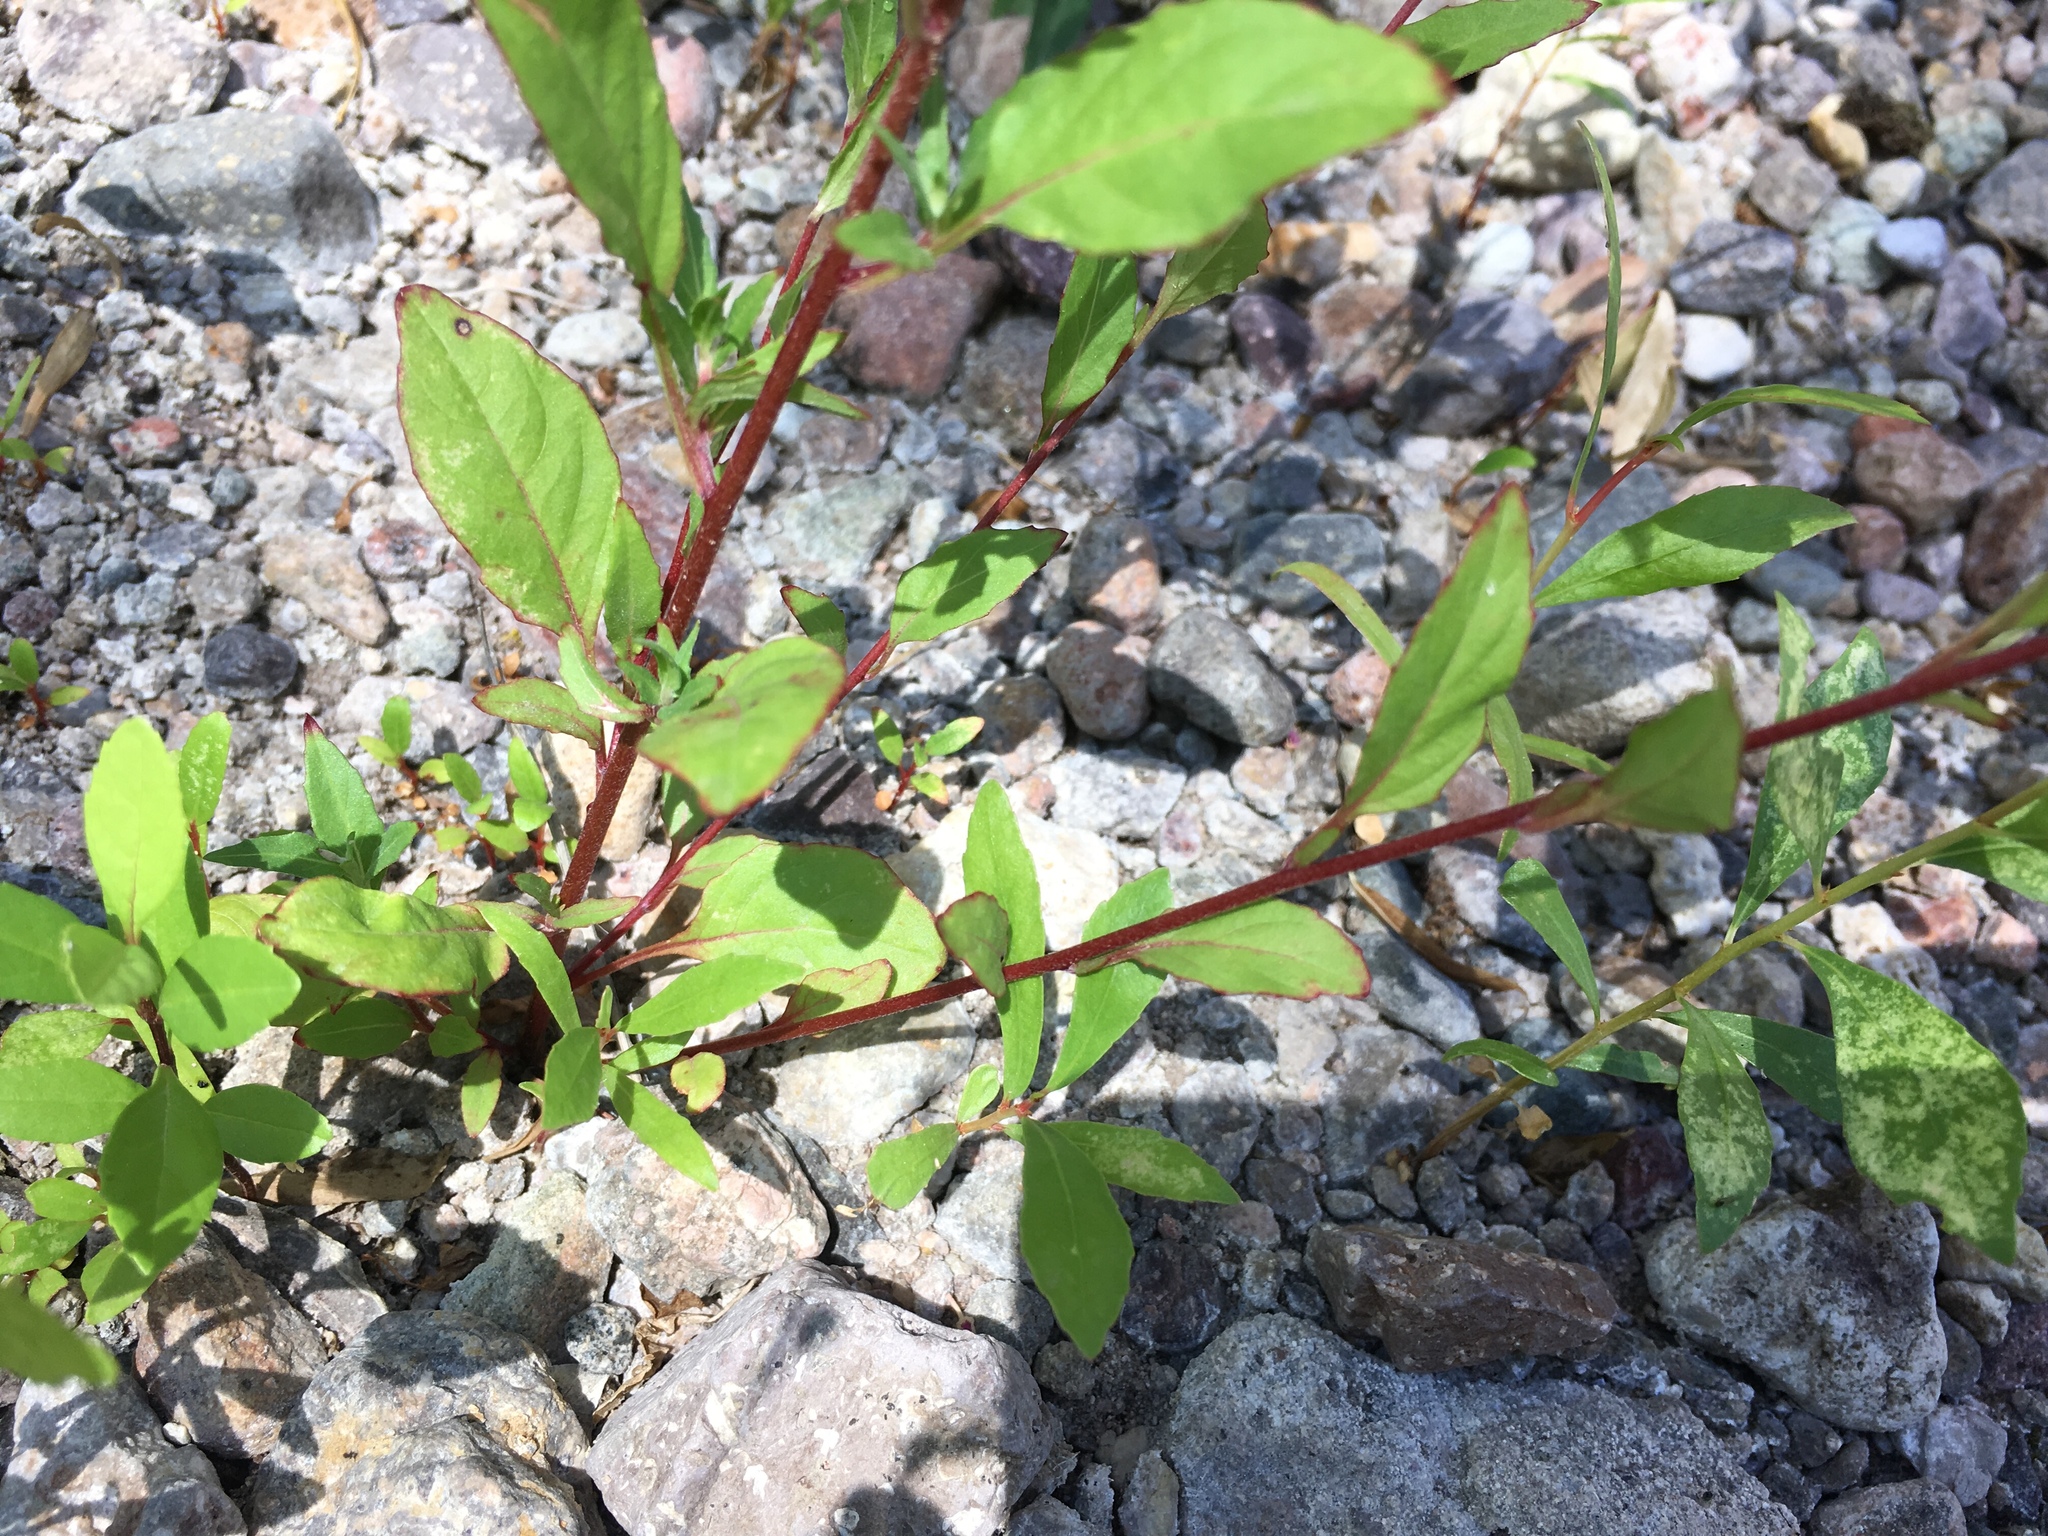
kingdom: Plantae
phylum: Tracheophyta
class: Magnoliopsida
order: Myrtales
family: Onagraceae
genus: Oenothera
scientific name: Oenothera rosea
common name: Rosy evening-primrose
